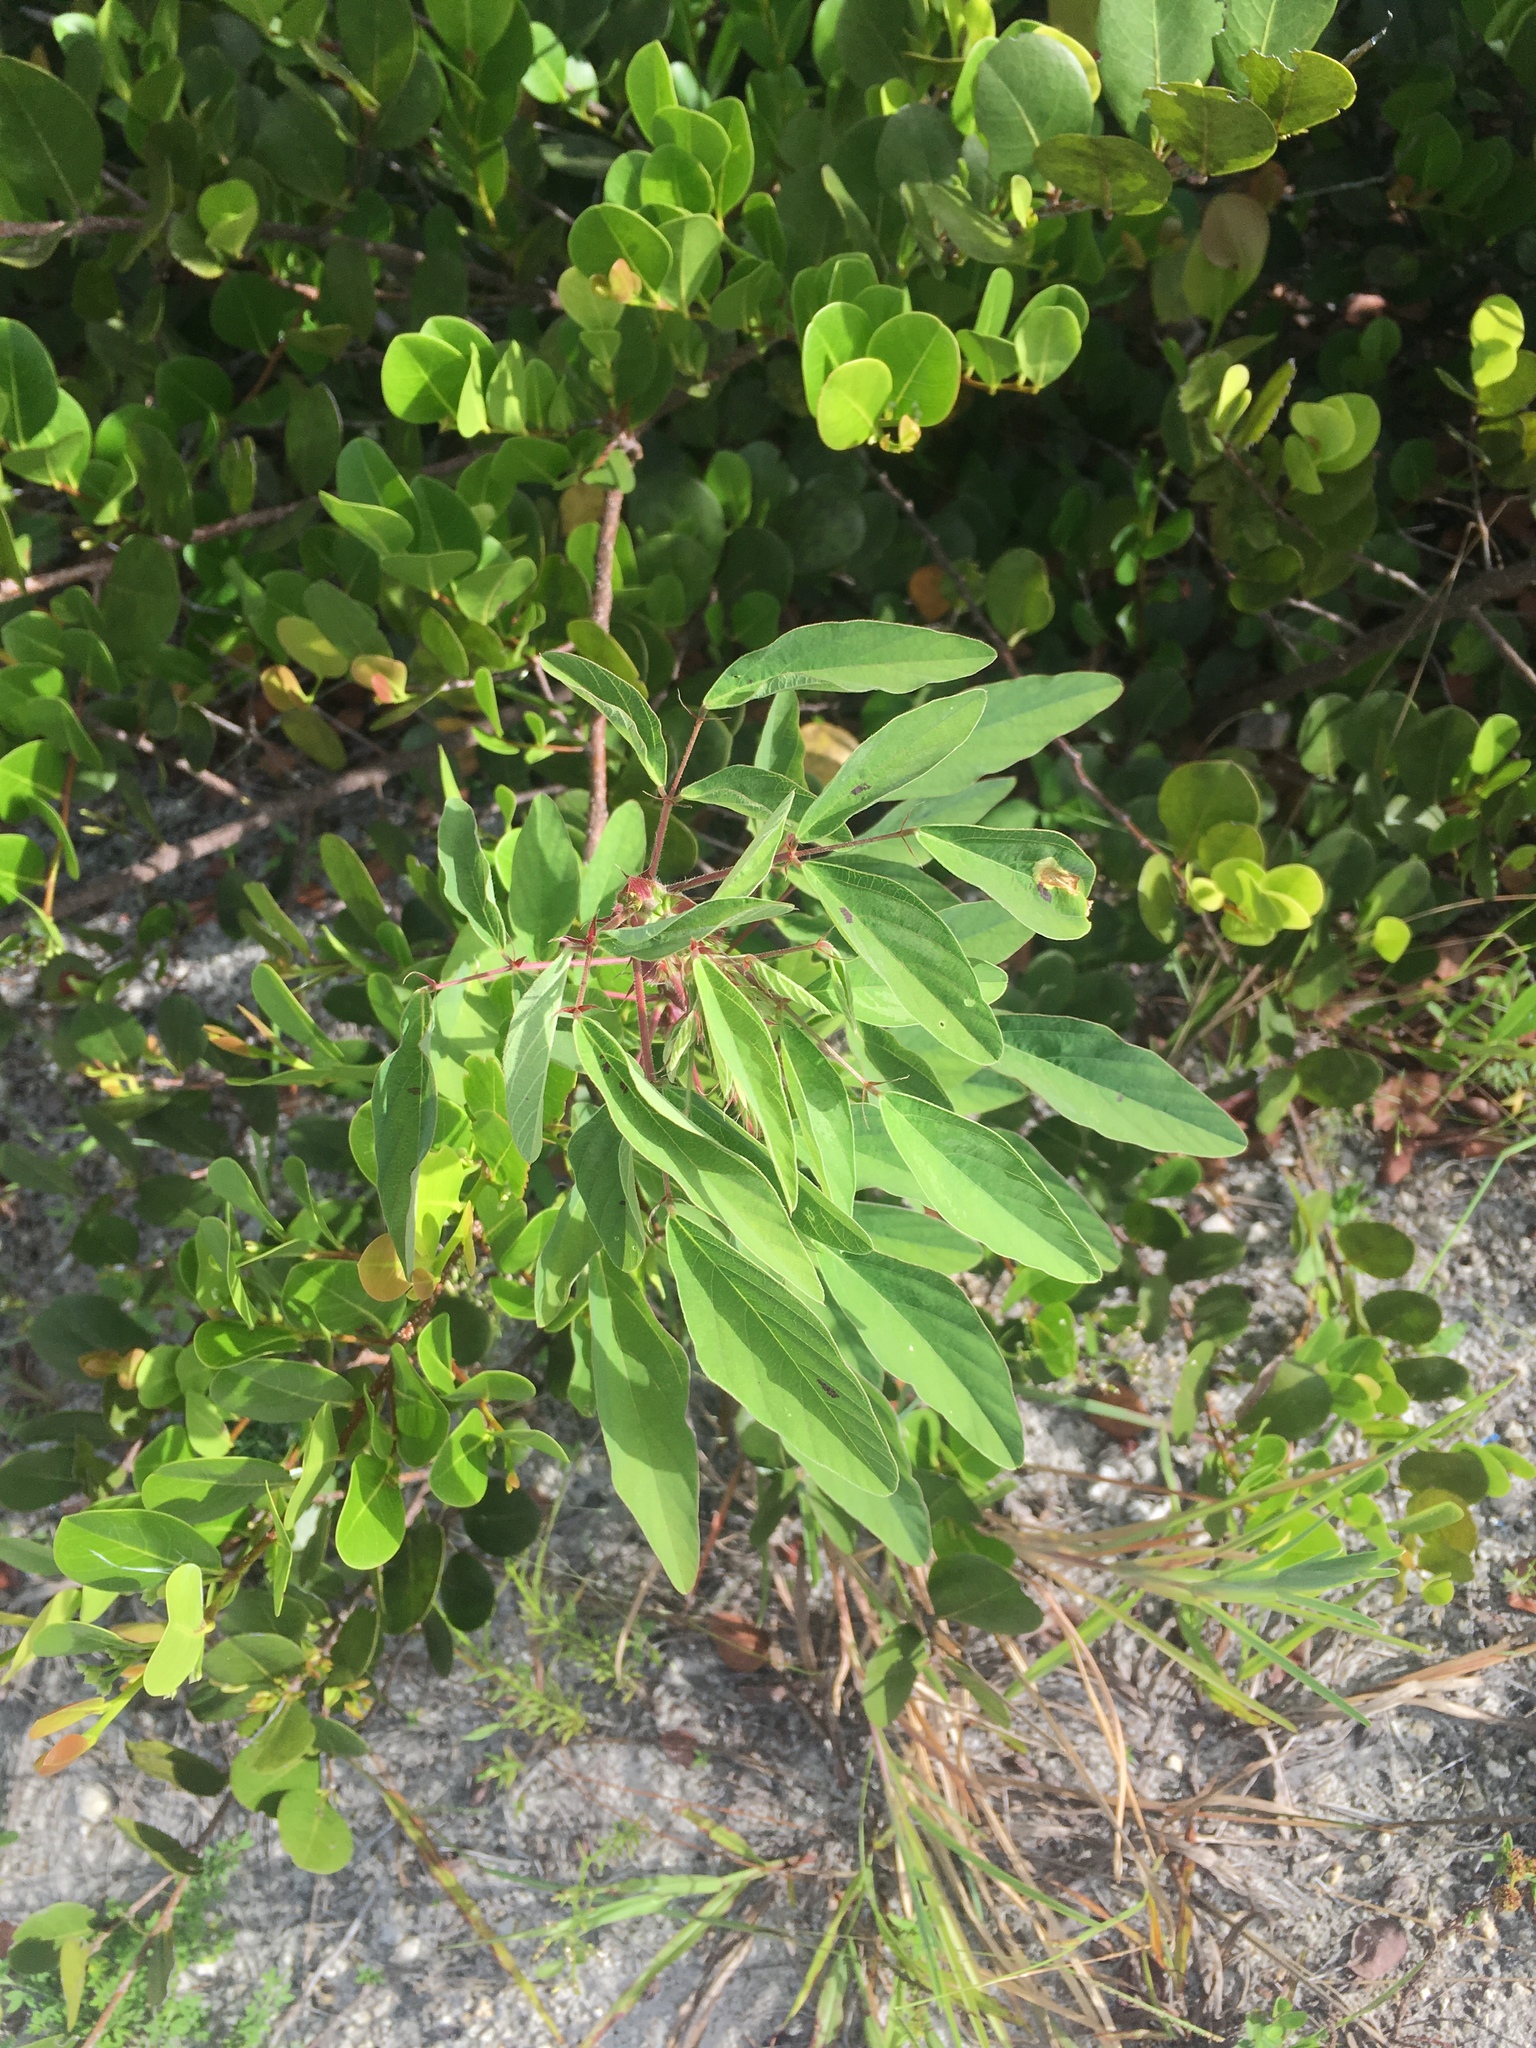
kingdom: Plantae
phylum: Tracheophyta
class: Magnoliopsida
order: Fabales
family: Fabaceae
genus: Desmodium
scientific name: Desmodium tortuosum
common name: Dixie ticktrefoil
